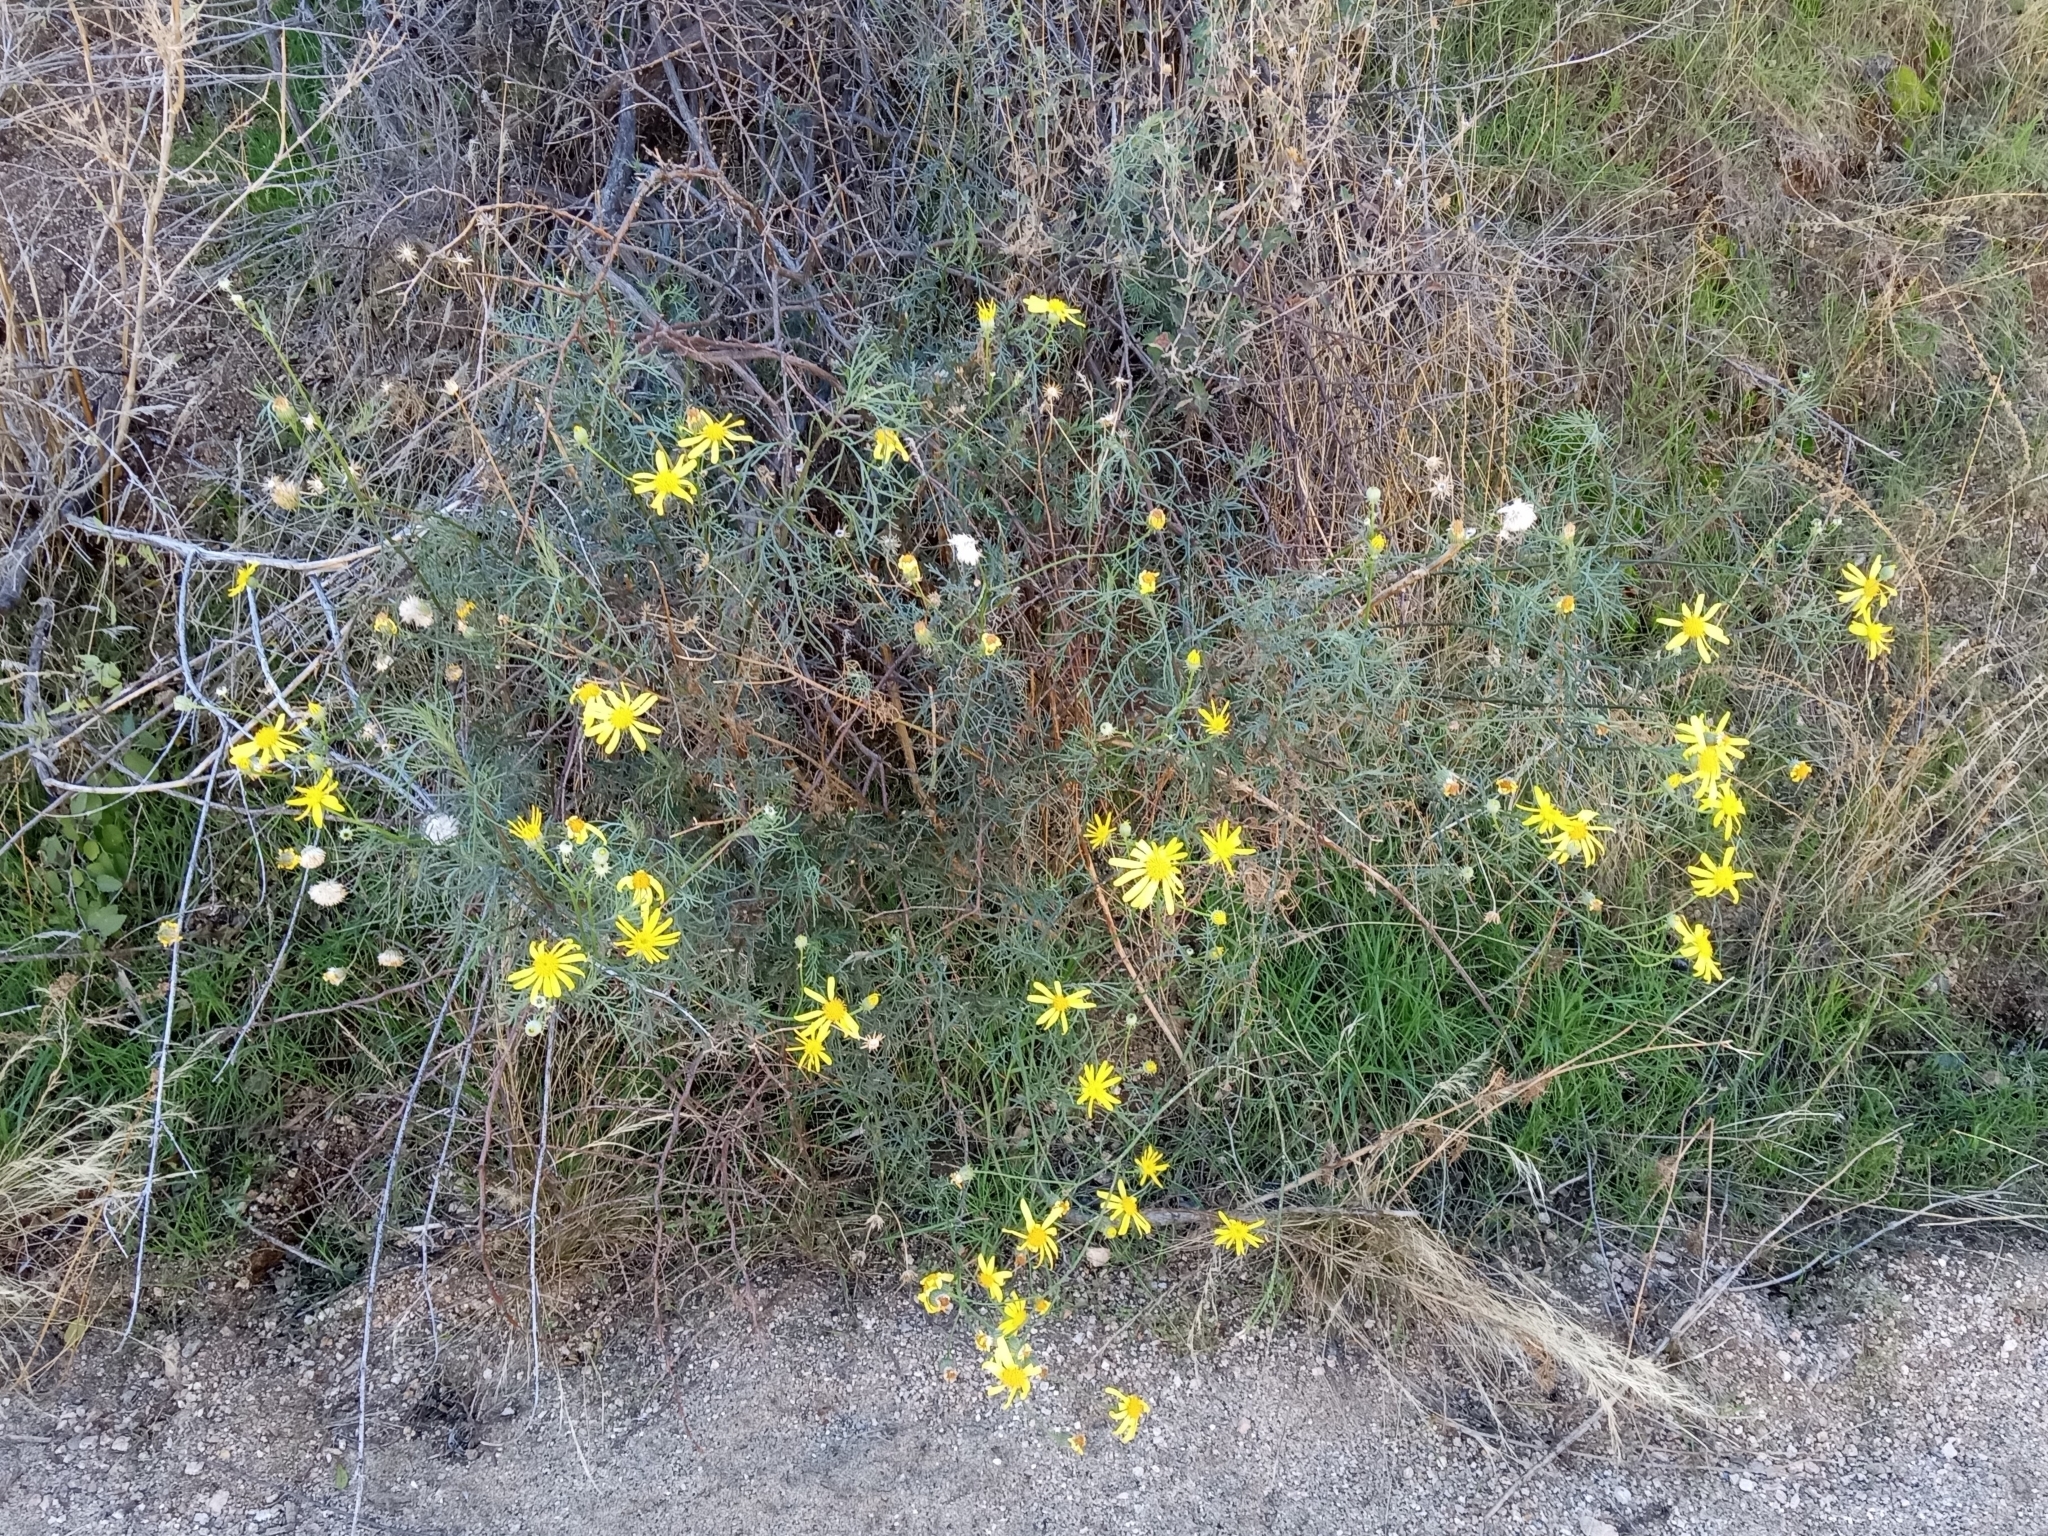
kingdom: Plantae
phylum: Tracheophyta
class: Magnoliopsida
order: Asterales
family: Asteraceae
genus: Senecio
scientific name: Senecio
